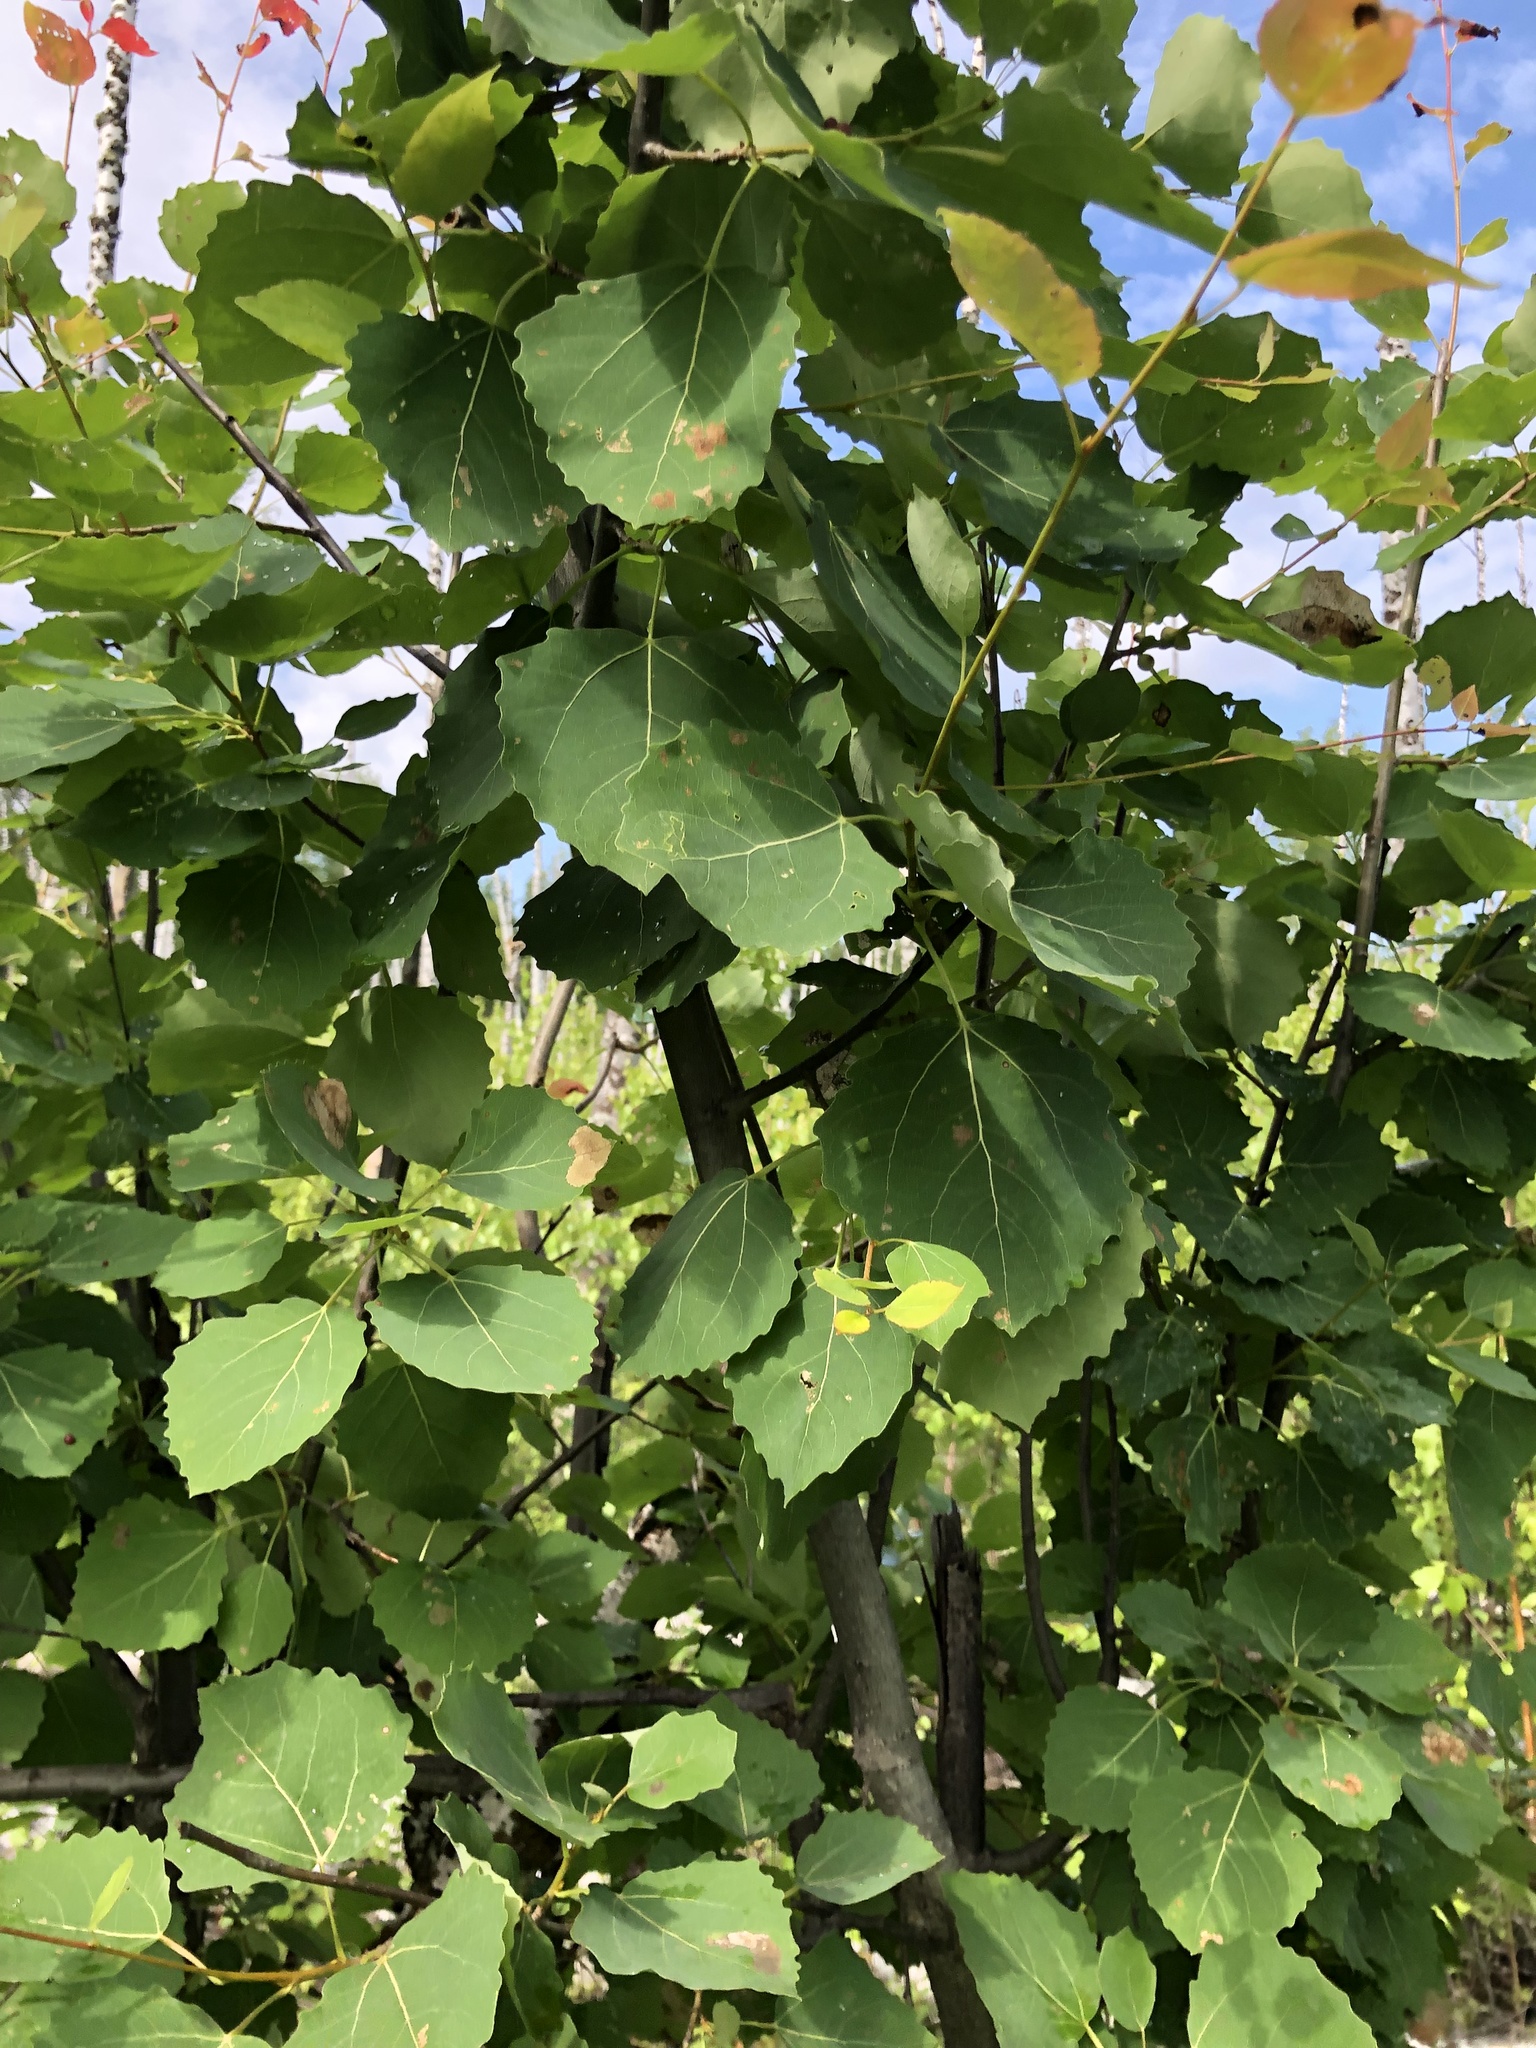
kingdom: Plantae
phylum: Tracheophyta
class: Magnoliopsida
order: Malpighiales
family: Salicaceae
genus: Populus
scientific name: Populus tremula
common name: European aspen
